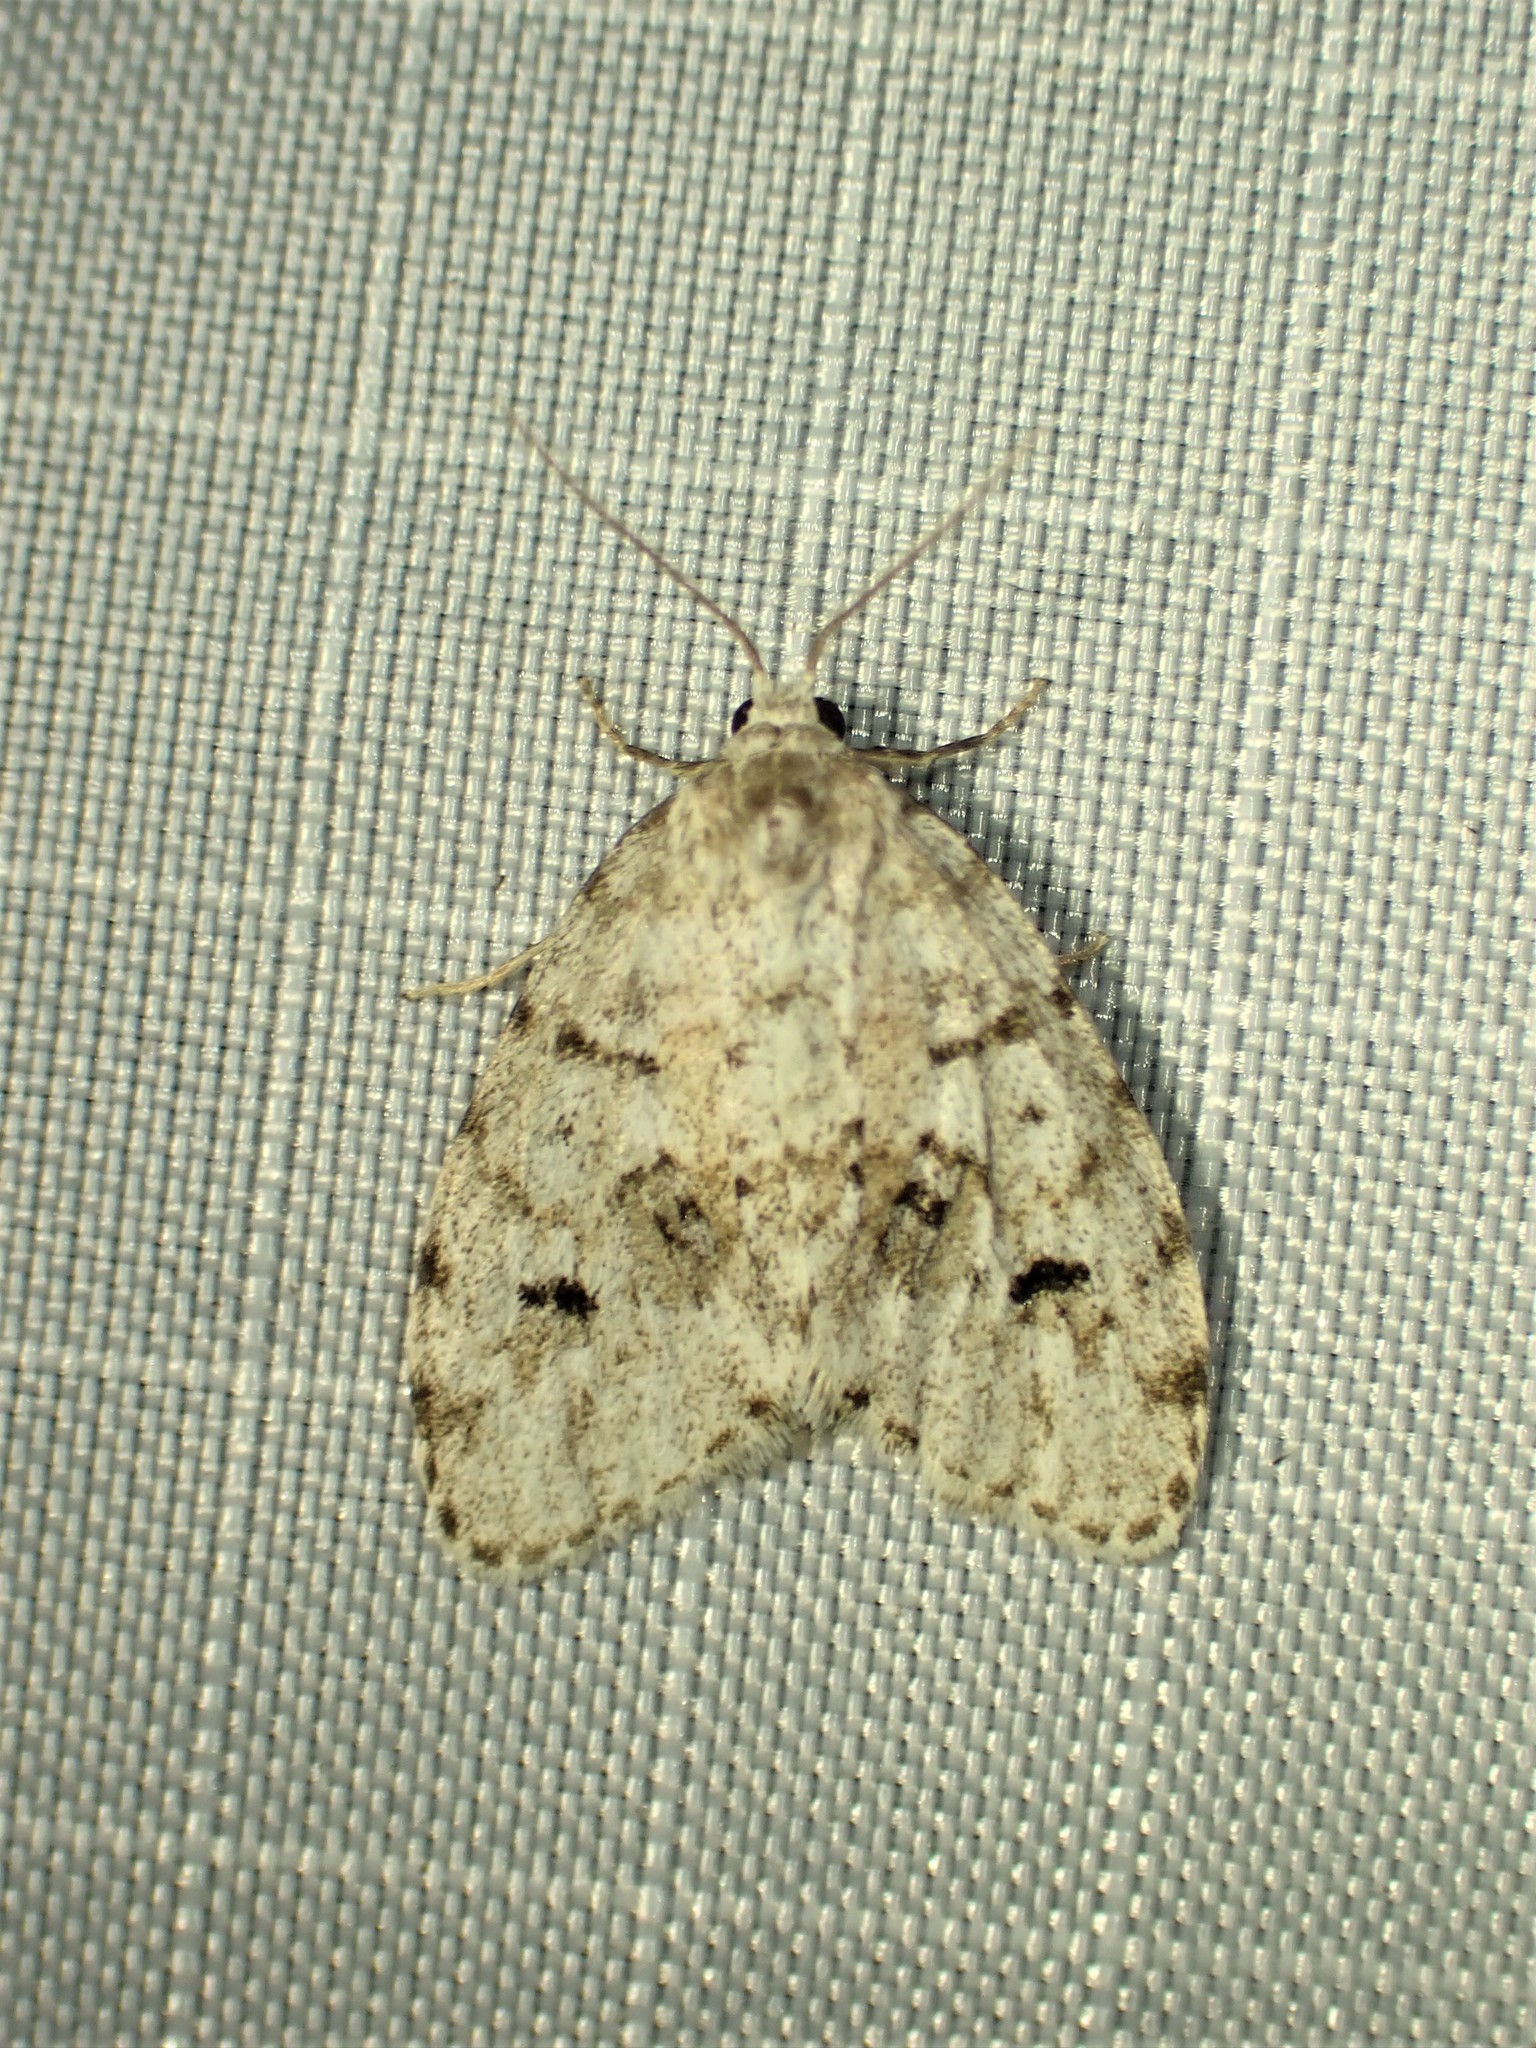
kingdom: Animalia
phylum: Arthropoda
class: Insecta
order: Lepidoptera
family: Erebidae
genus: Clemensia
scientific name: Clemensia umbrata
